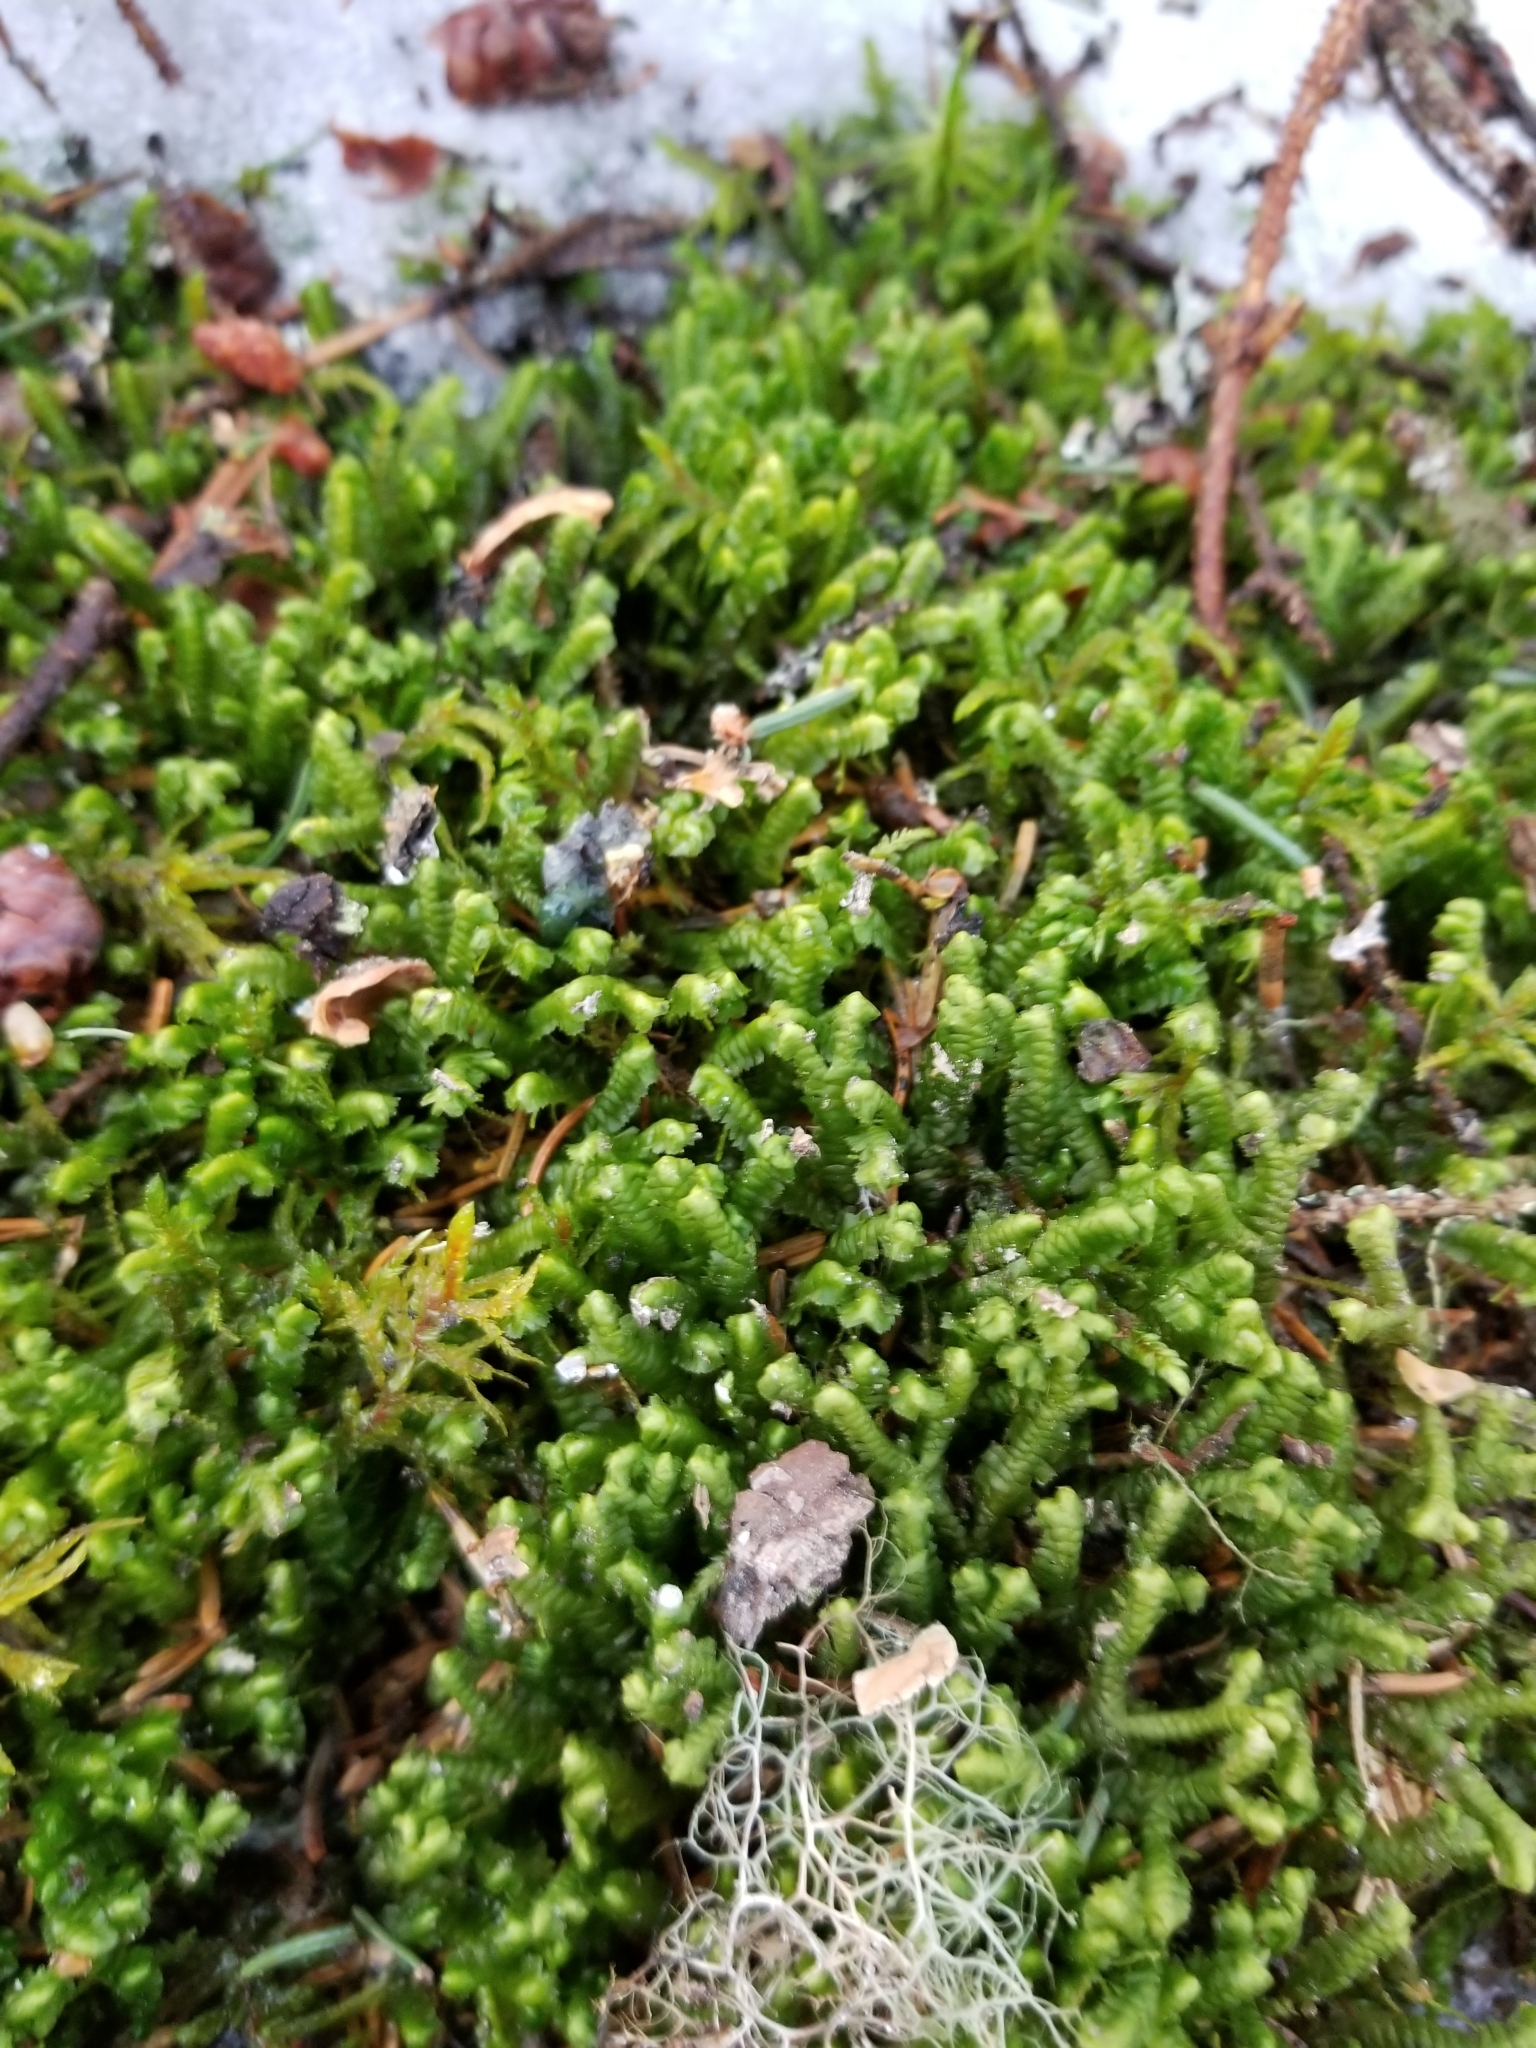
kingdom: Plantae
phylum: Marchantiophyta
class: Jungermanniopsida
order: Jungermanniales
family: Lepidoziaceae
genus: Bazzania
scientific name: Bazzania trilobata
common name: Three-lobed whipwort
